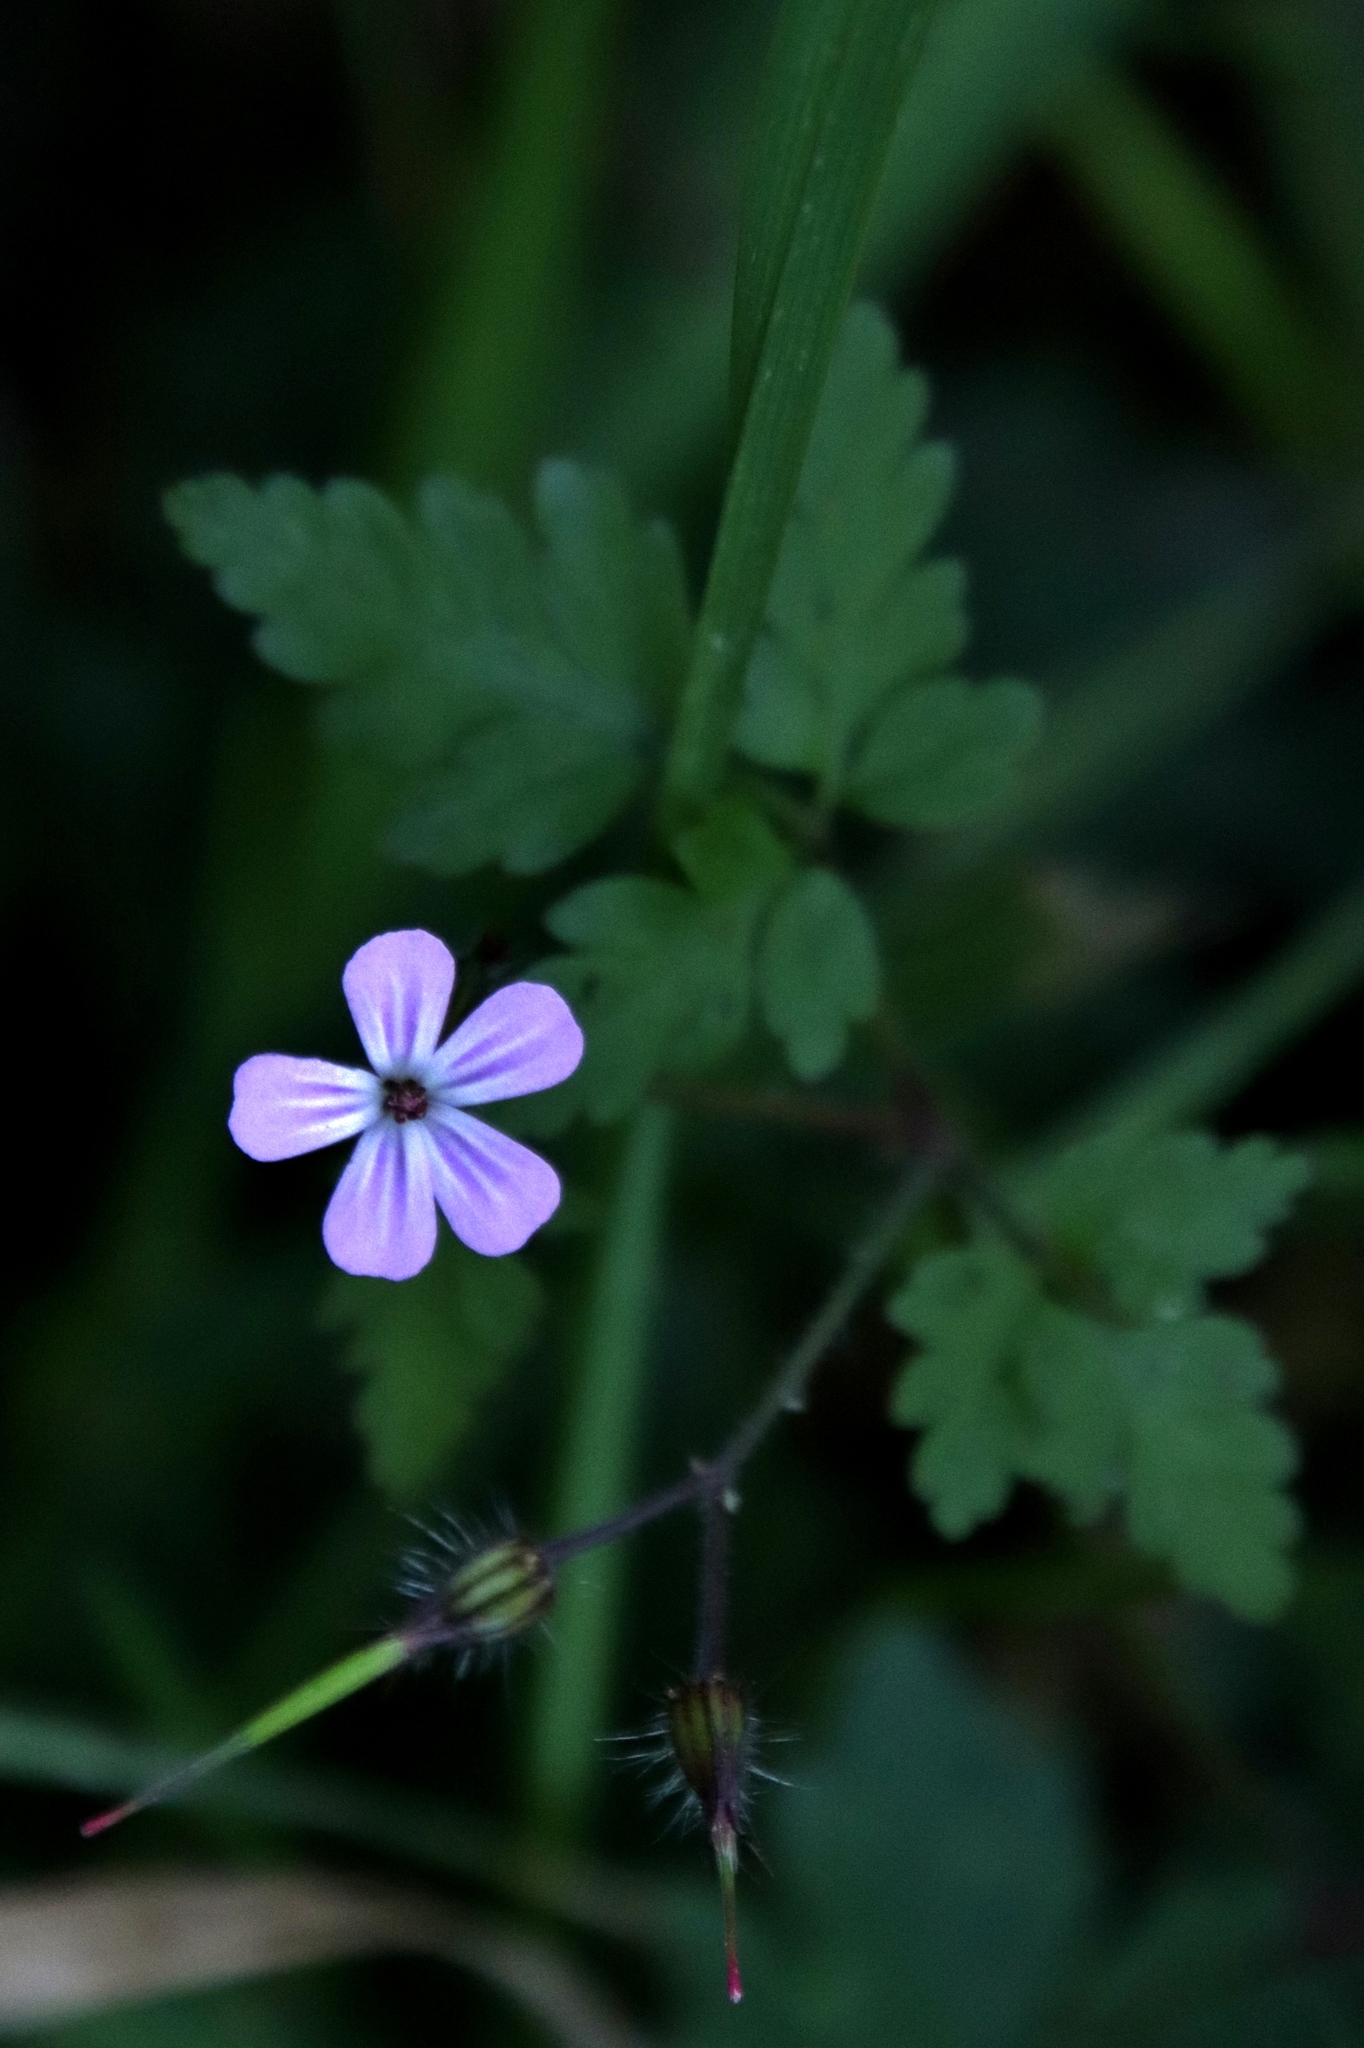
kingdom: Plantae
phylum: Tracheophyta
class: Magnoliopsida
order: Geraniales
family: Geraniaceae
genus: Geranium
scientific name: Geranium robertianum
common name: Herb-robert
